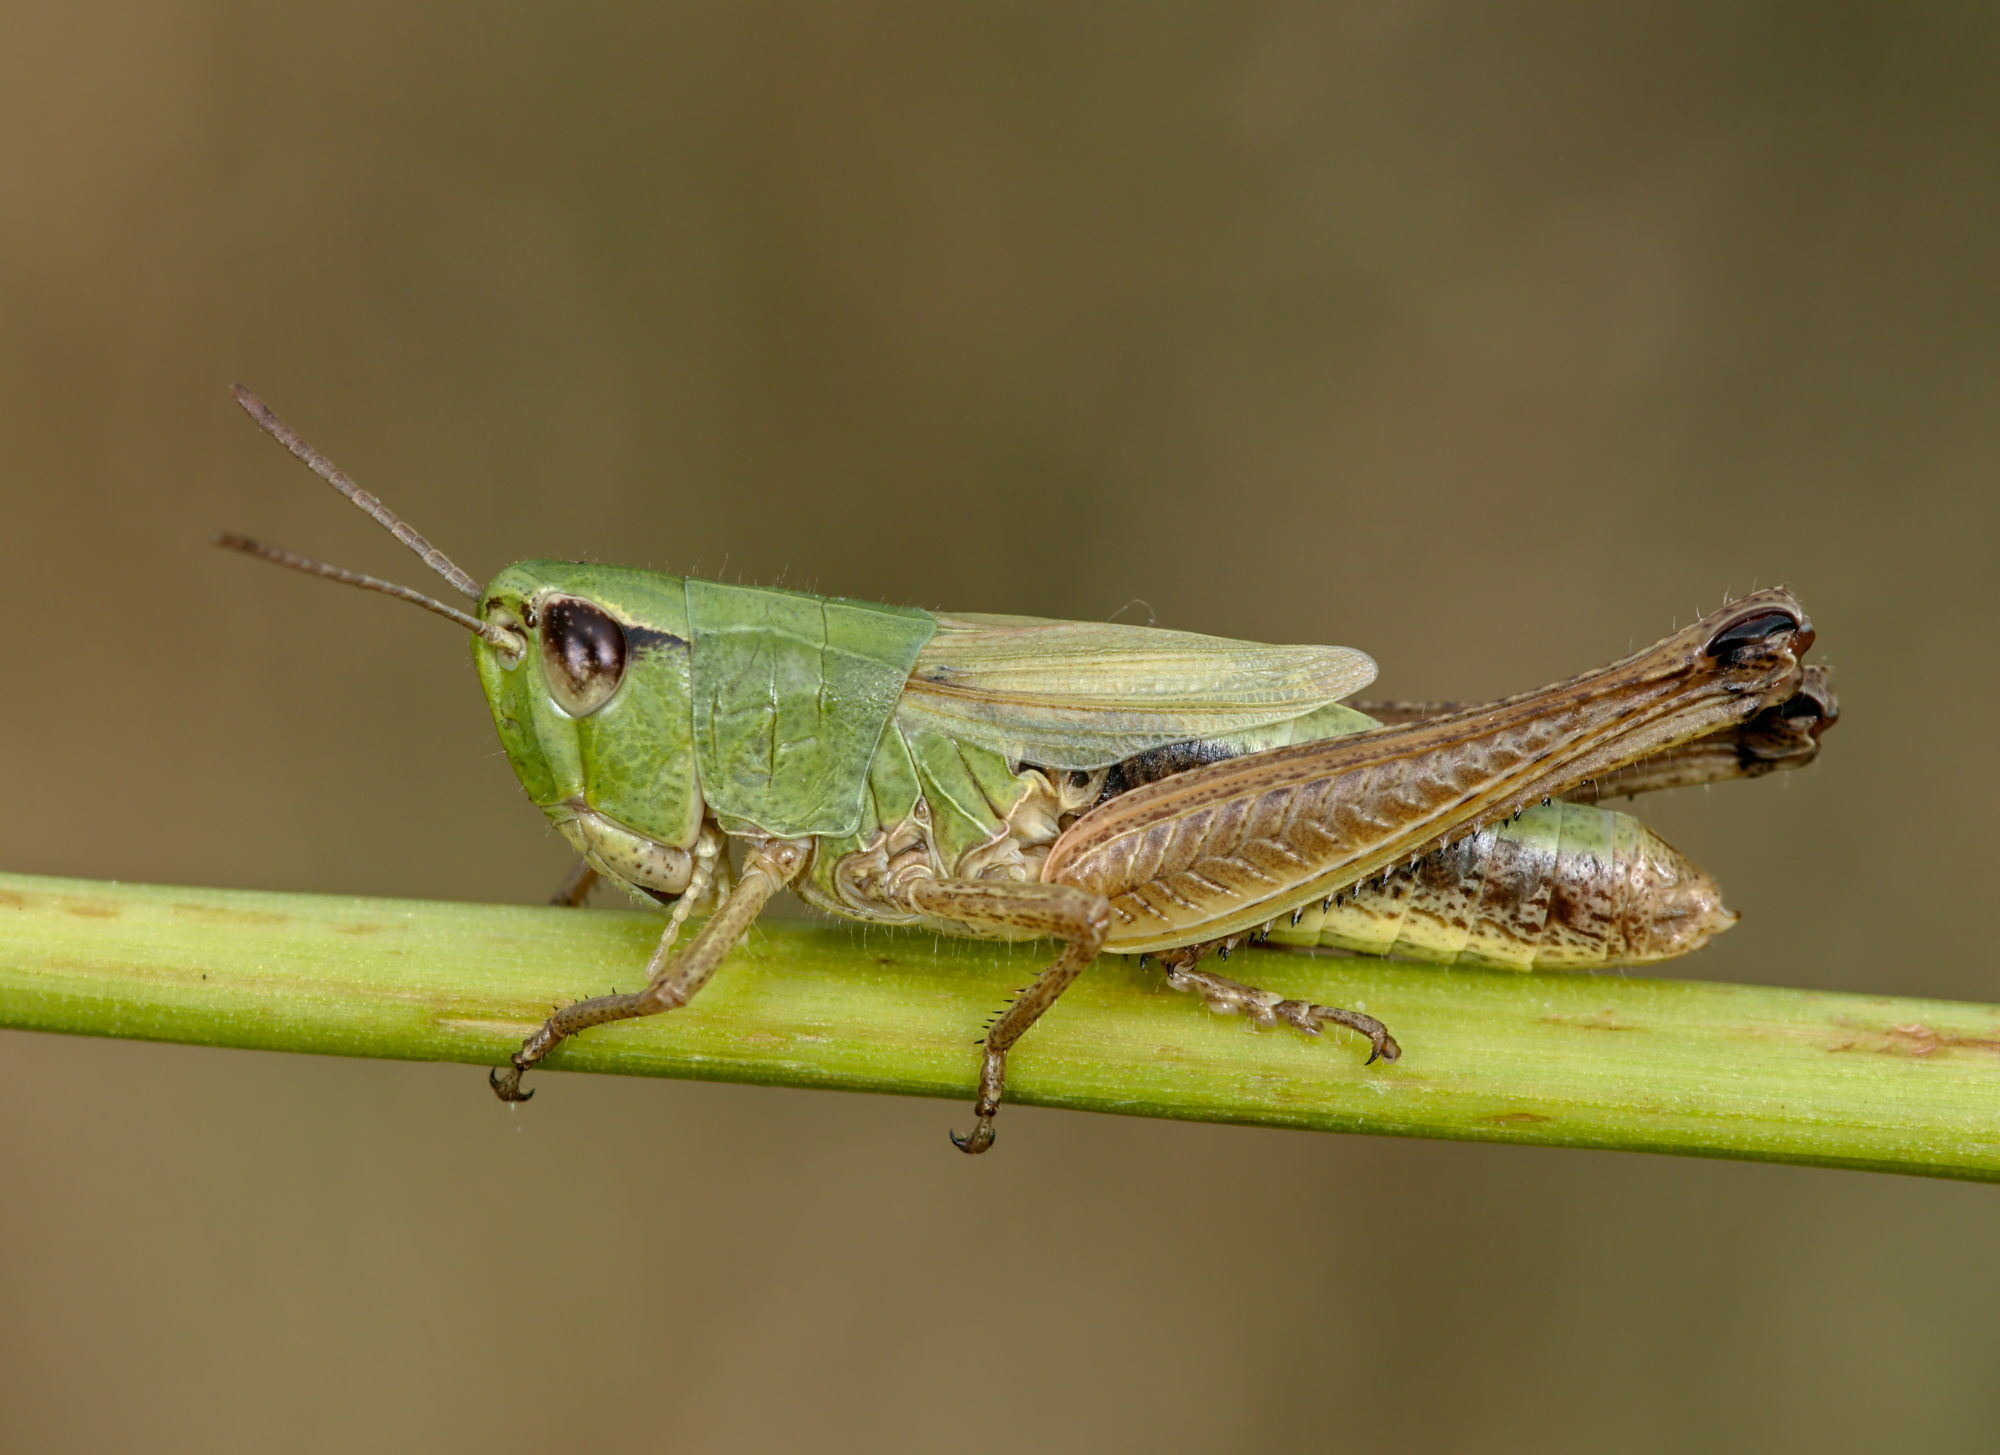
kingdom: Animalia
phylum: Arthropoda
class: Insecta
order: Orthoptera
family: Acrididae
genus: Pseudochorthippus
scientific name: Pseudochorthippus parallelus
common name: Meadow grasshopper
